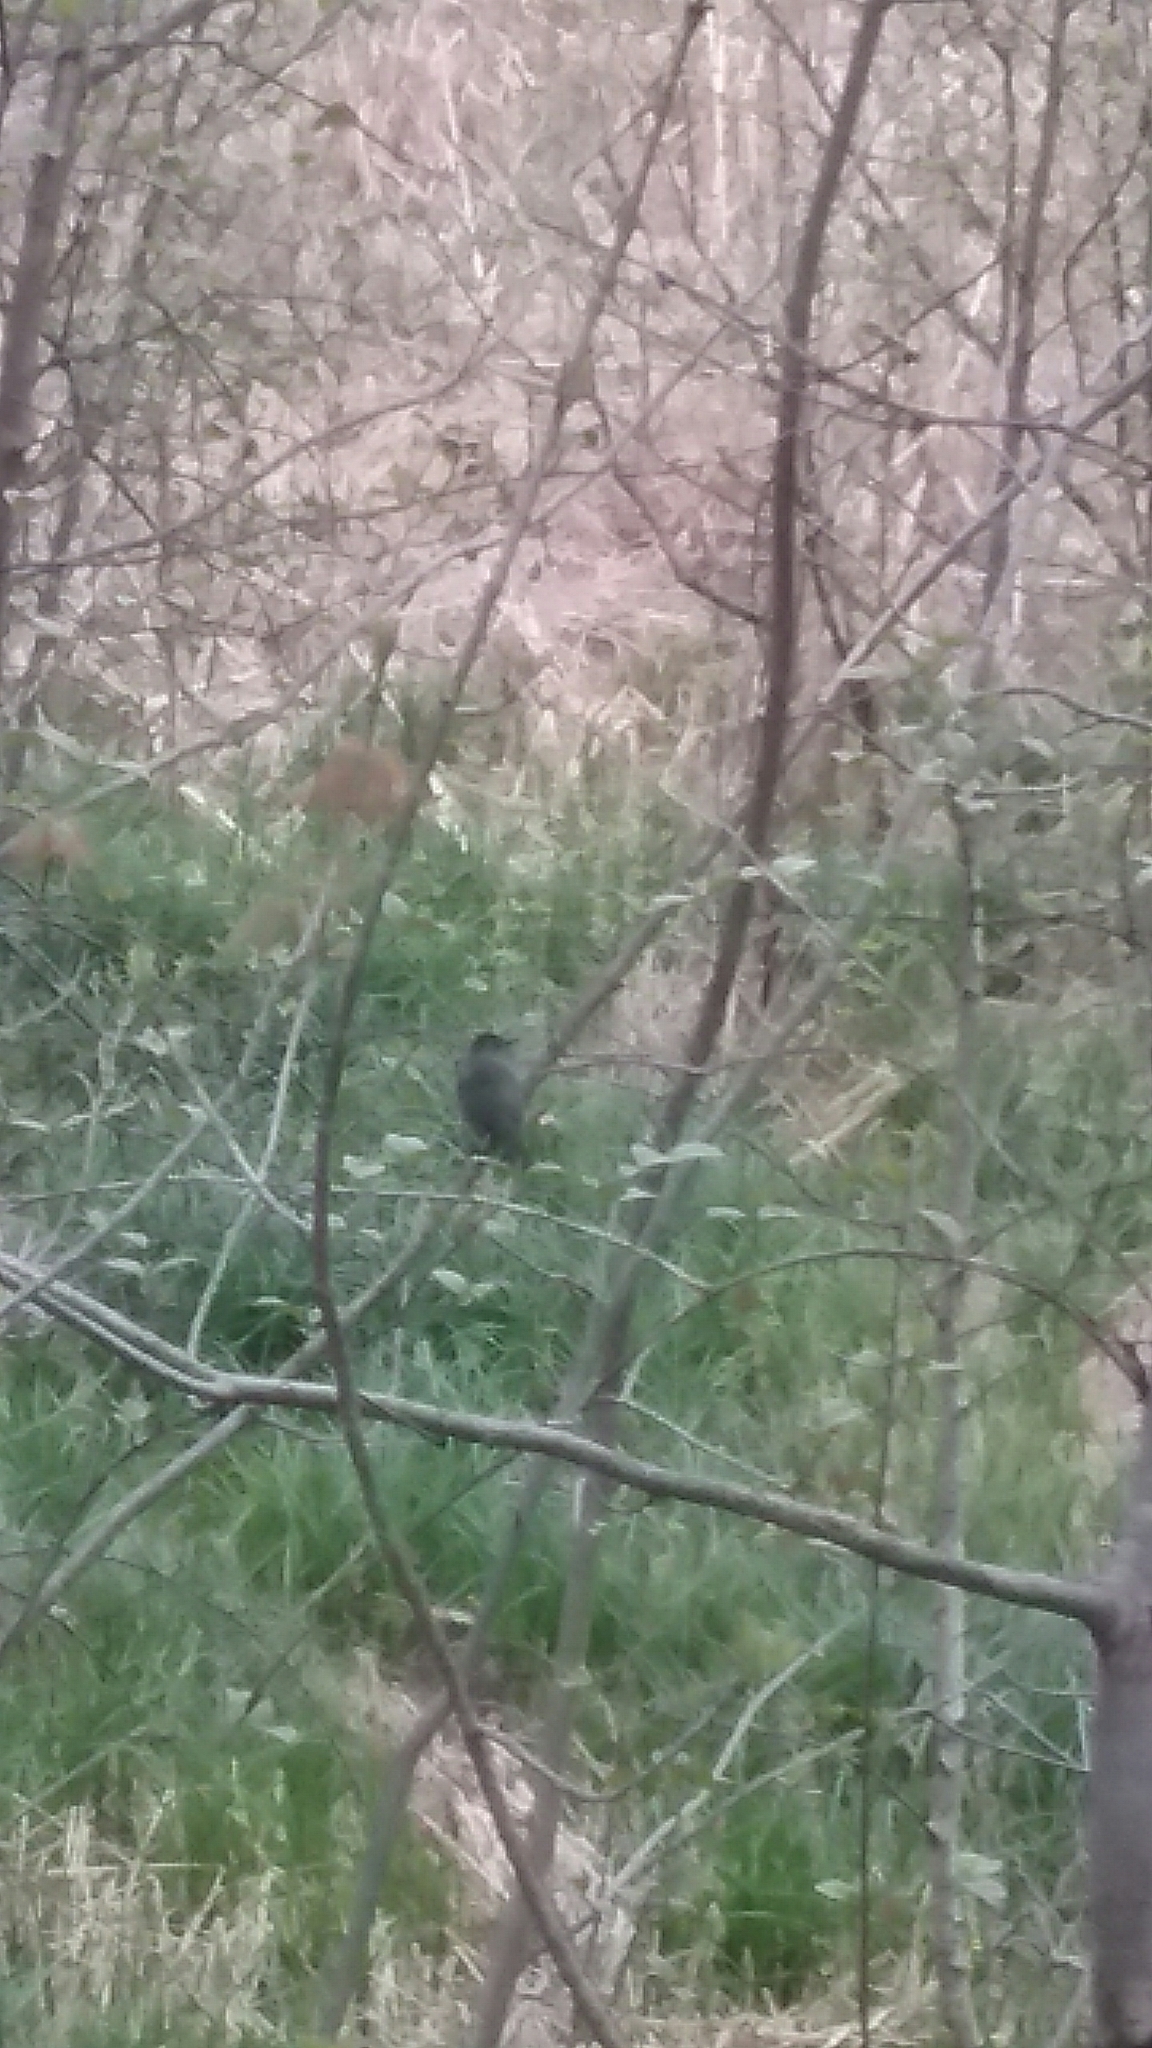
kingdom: Animalia
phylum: Chordata
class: Aves
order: Passeriformes
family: Mimidae
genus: Dumetella
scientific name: Dumetella carolinensis
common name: Gray catbird
